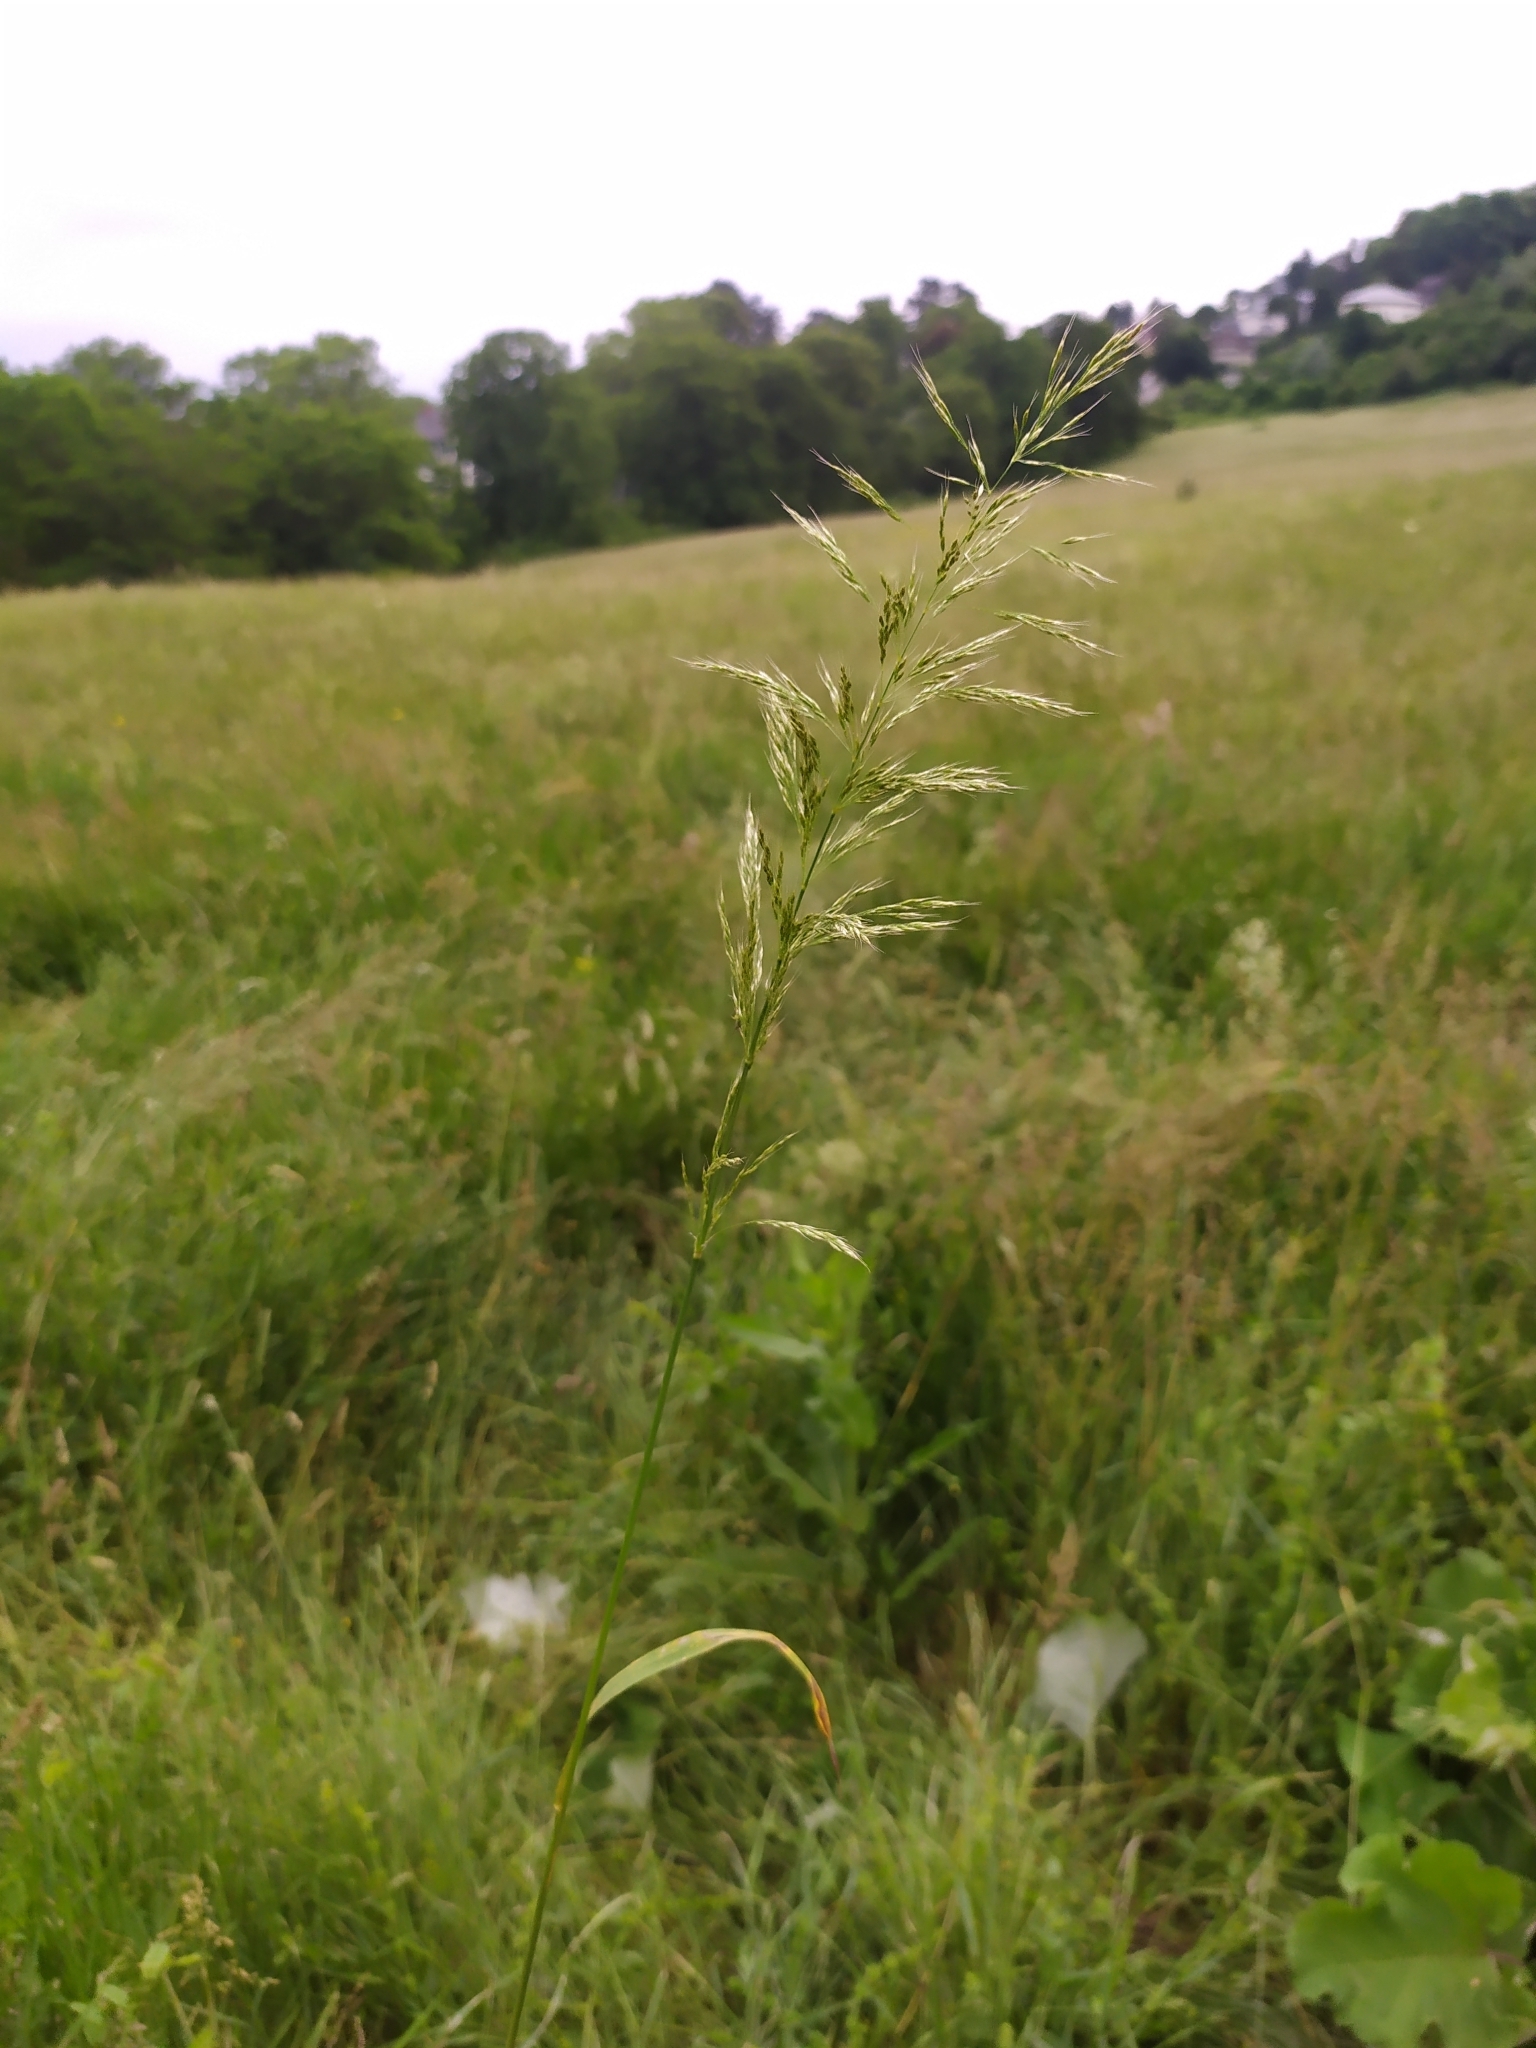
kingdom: Plantae
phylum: Tracheophyta
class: Liliopsida
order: Poales
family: Poaceae
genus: Trisetum
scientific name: Trisetum flavescens
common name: Yellow oat-grass
